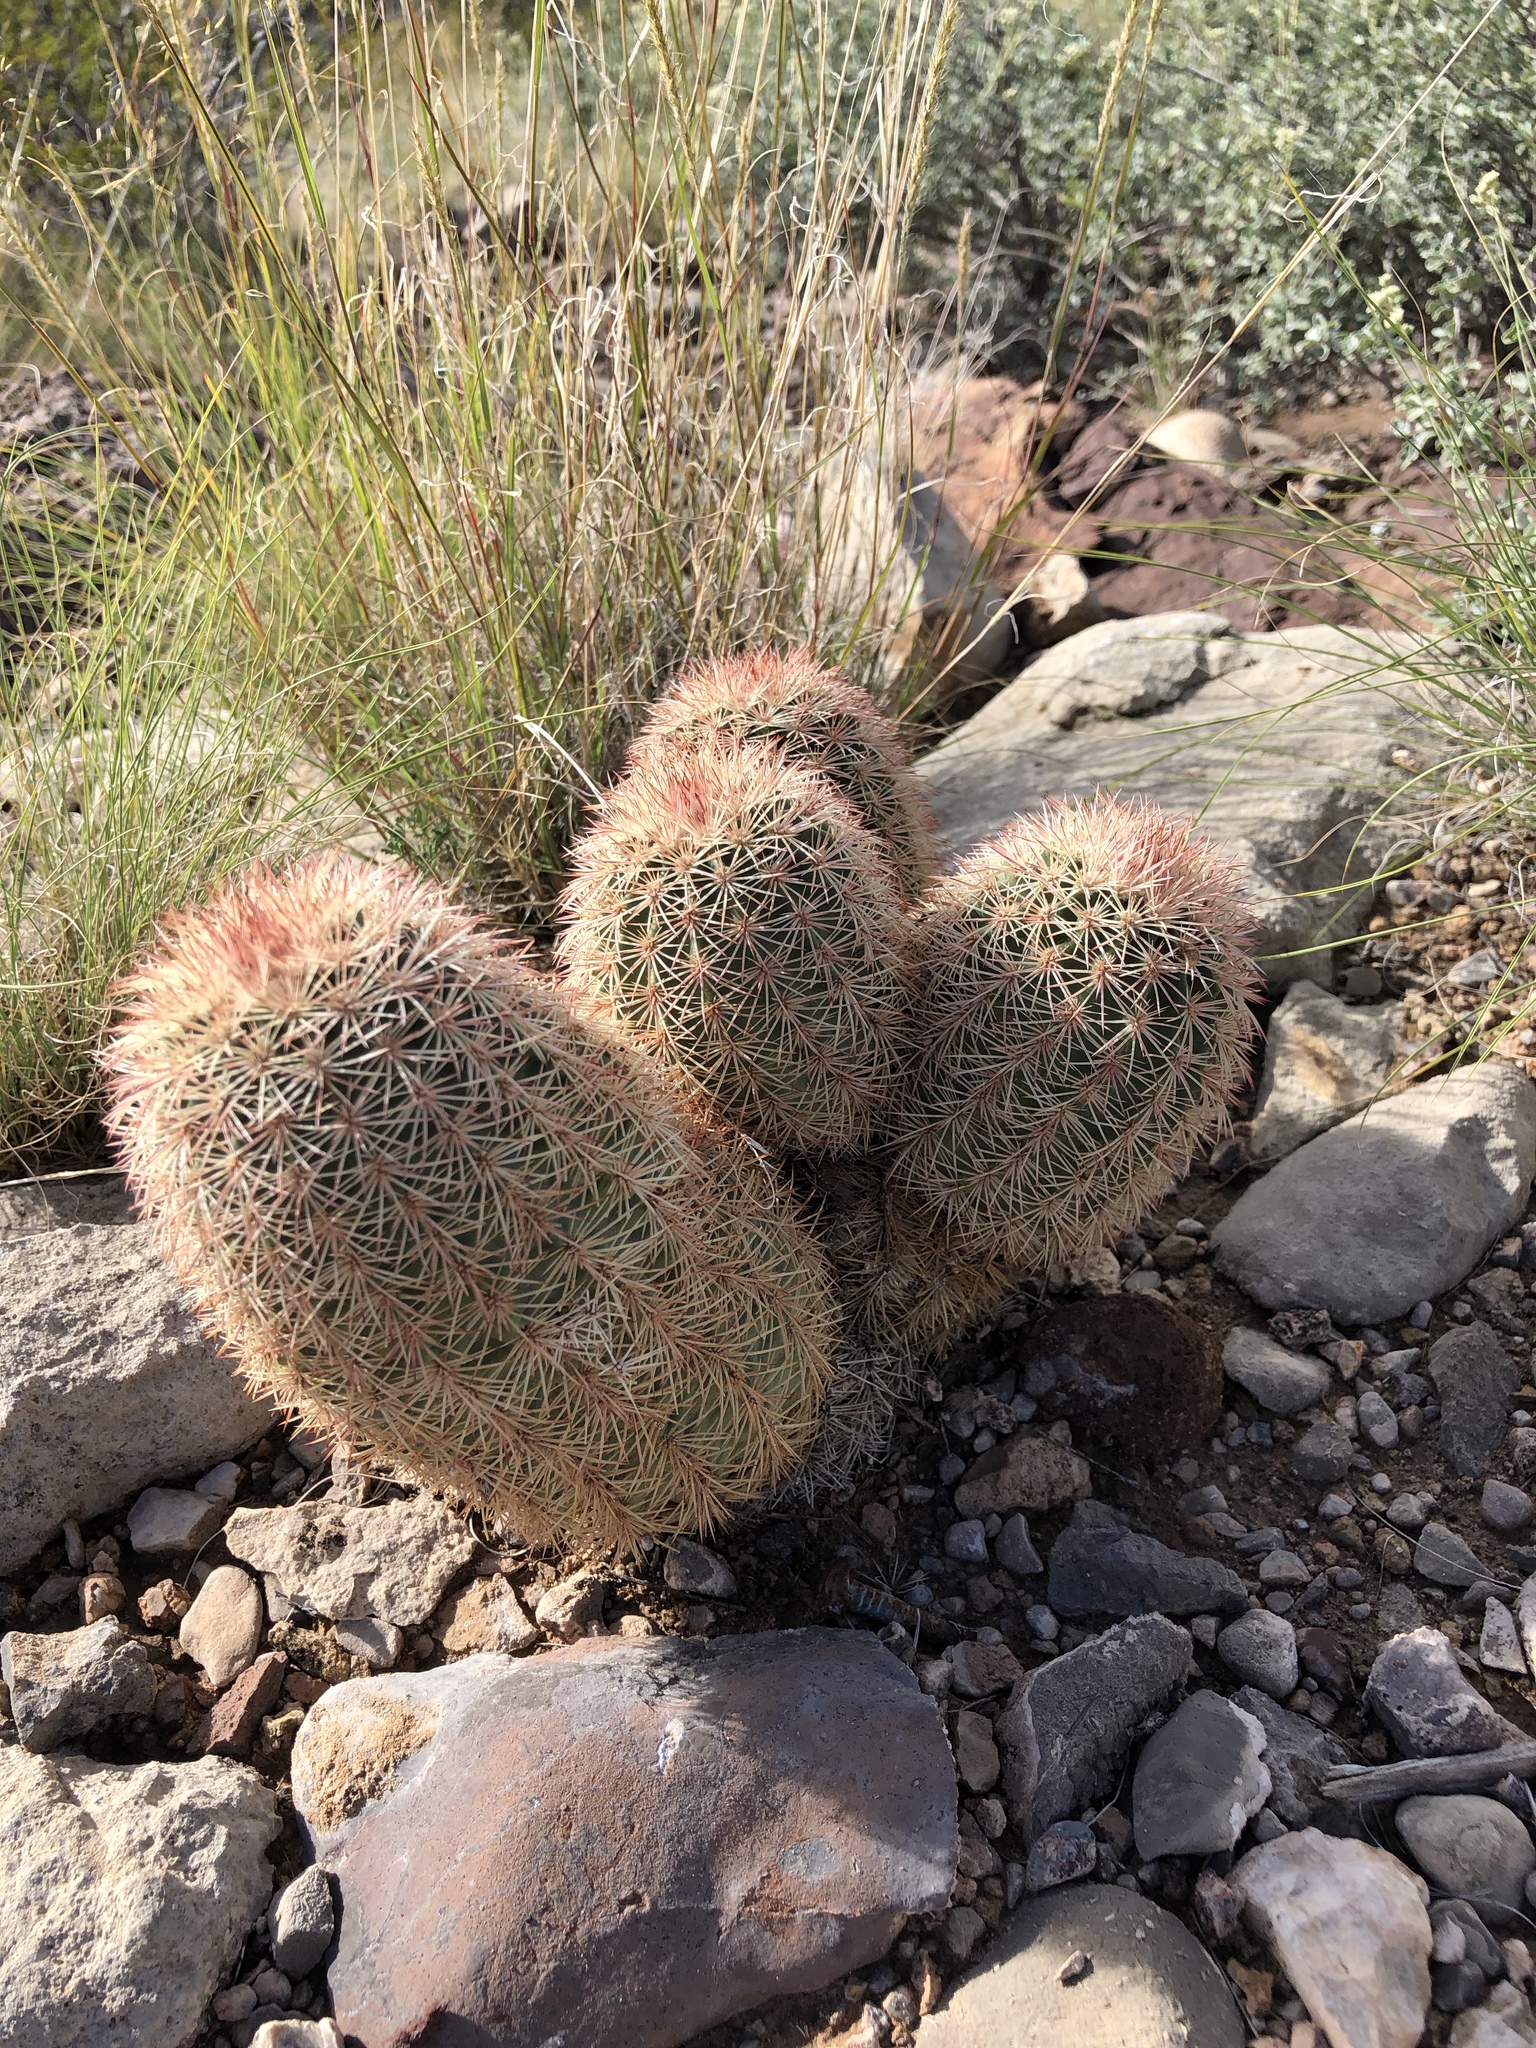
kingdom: Plantae
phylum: Tracheophyta
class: Magnoliopsida
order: Caryophyllales
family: Cactaceae
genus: Echinocereus
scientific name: Echinocereus dasyacanthus
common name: Spiny hedgehog cactus
